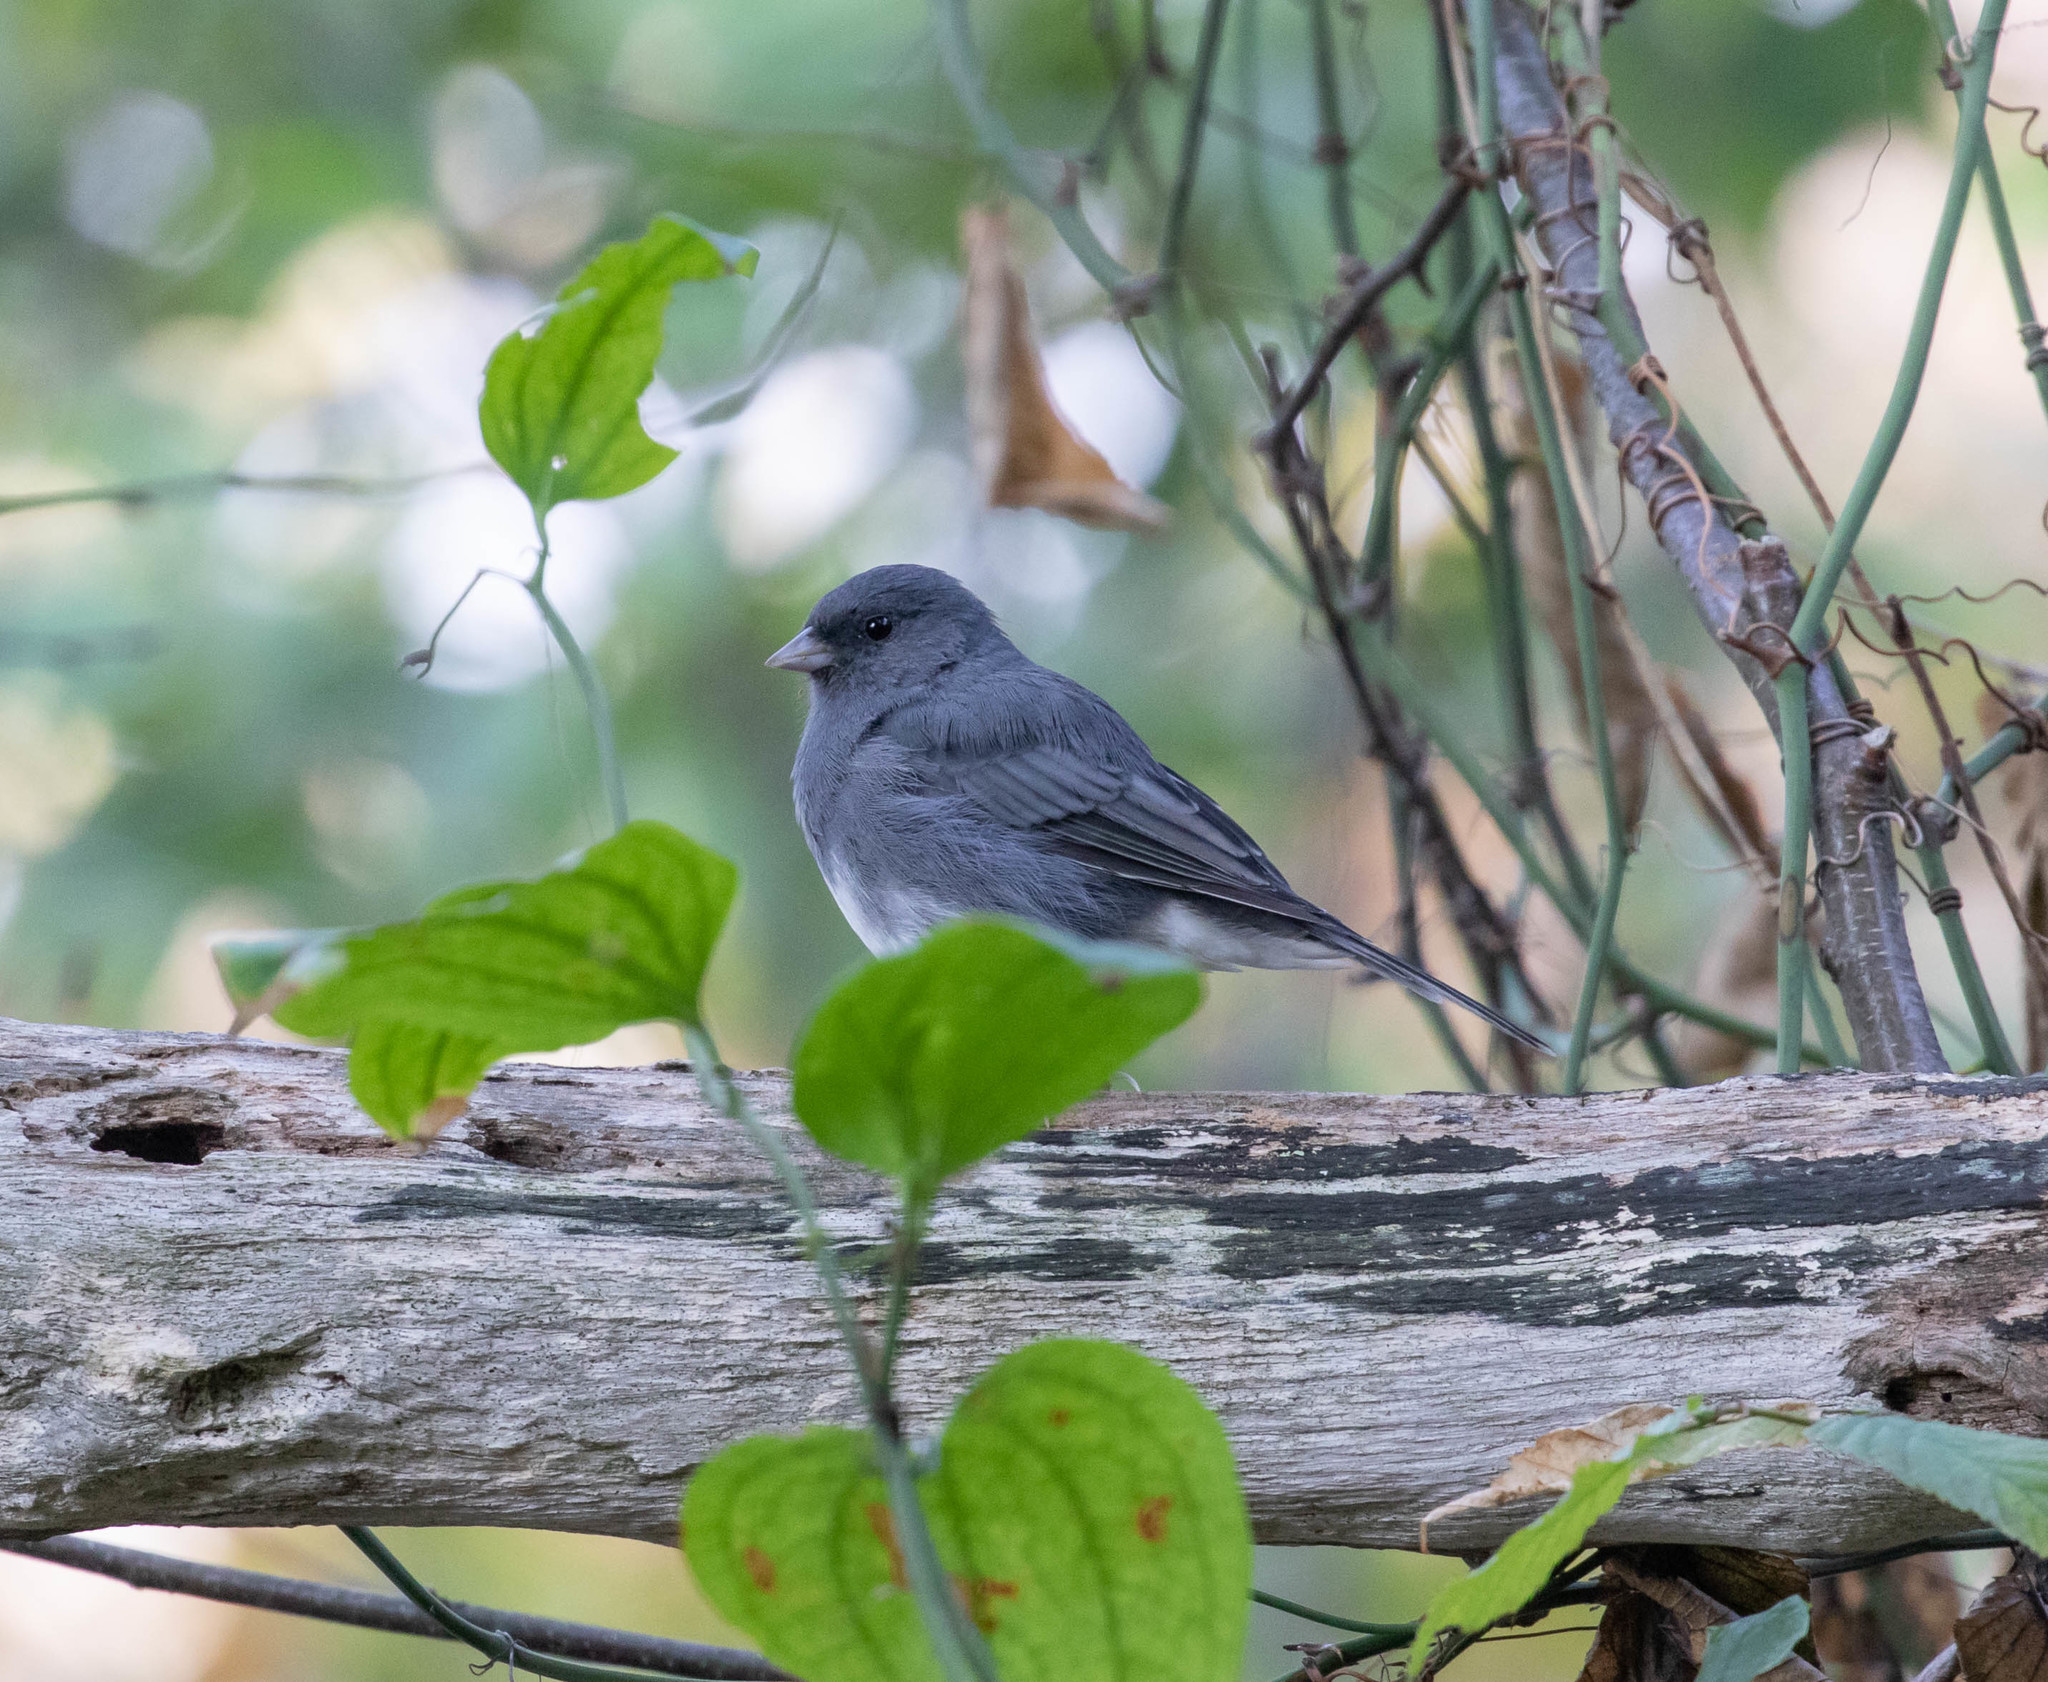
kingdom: Animalia
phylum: Chordata
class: Aves
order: Passeriformes
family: Passerellidae
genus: Junco
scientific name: Junco hyemalis
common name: Dark-eyed junco
